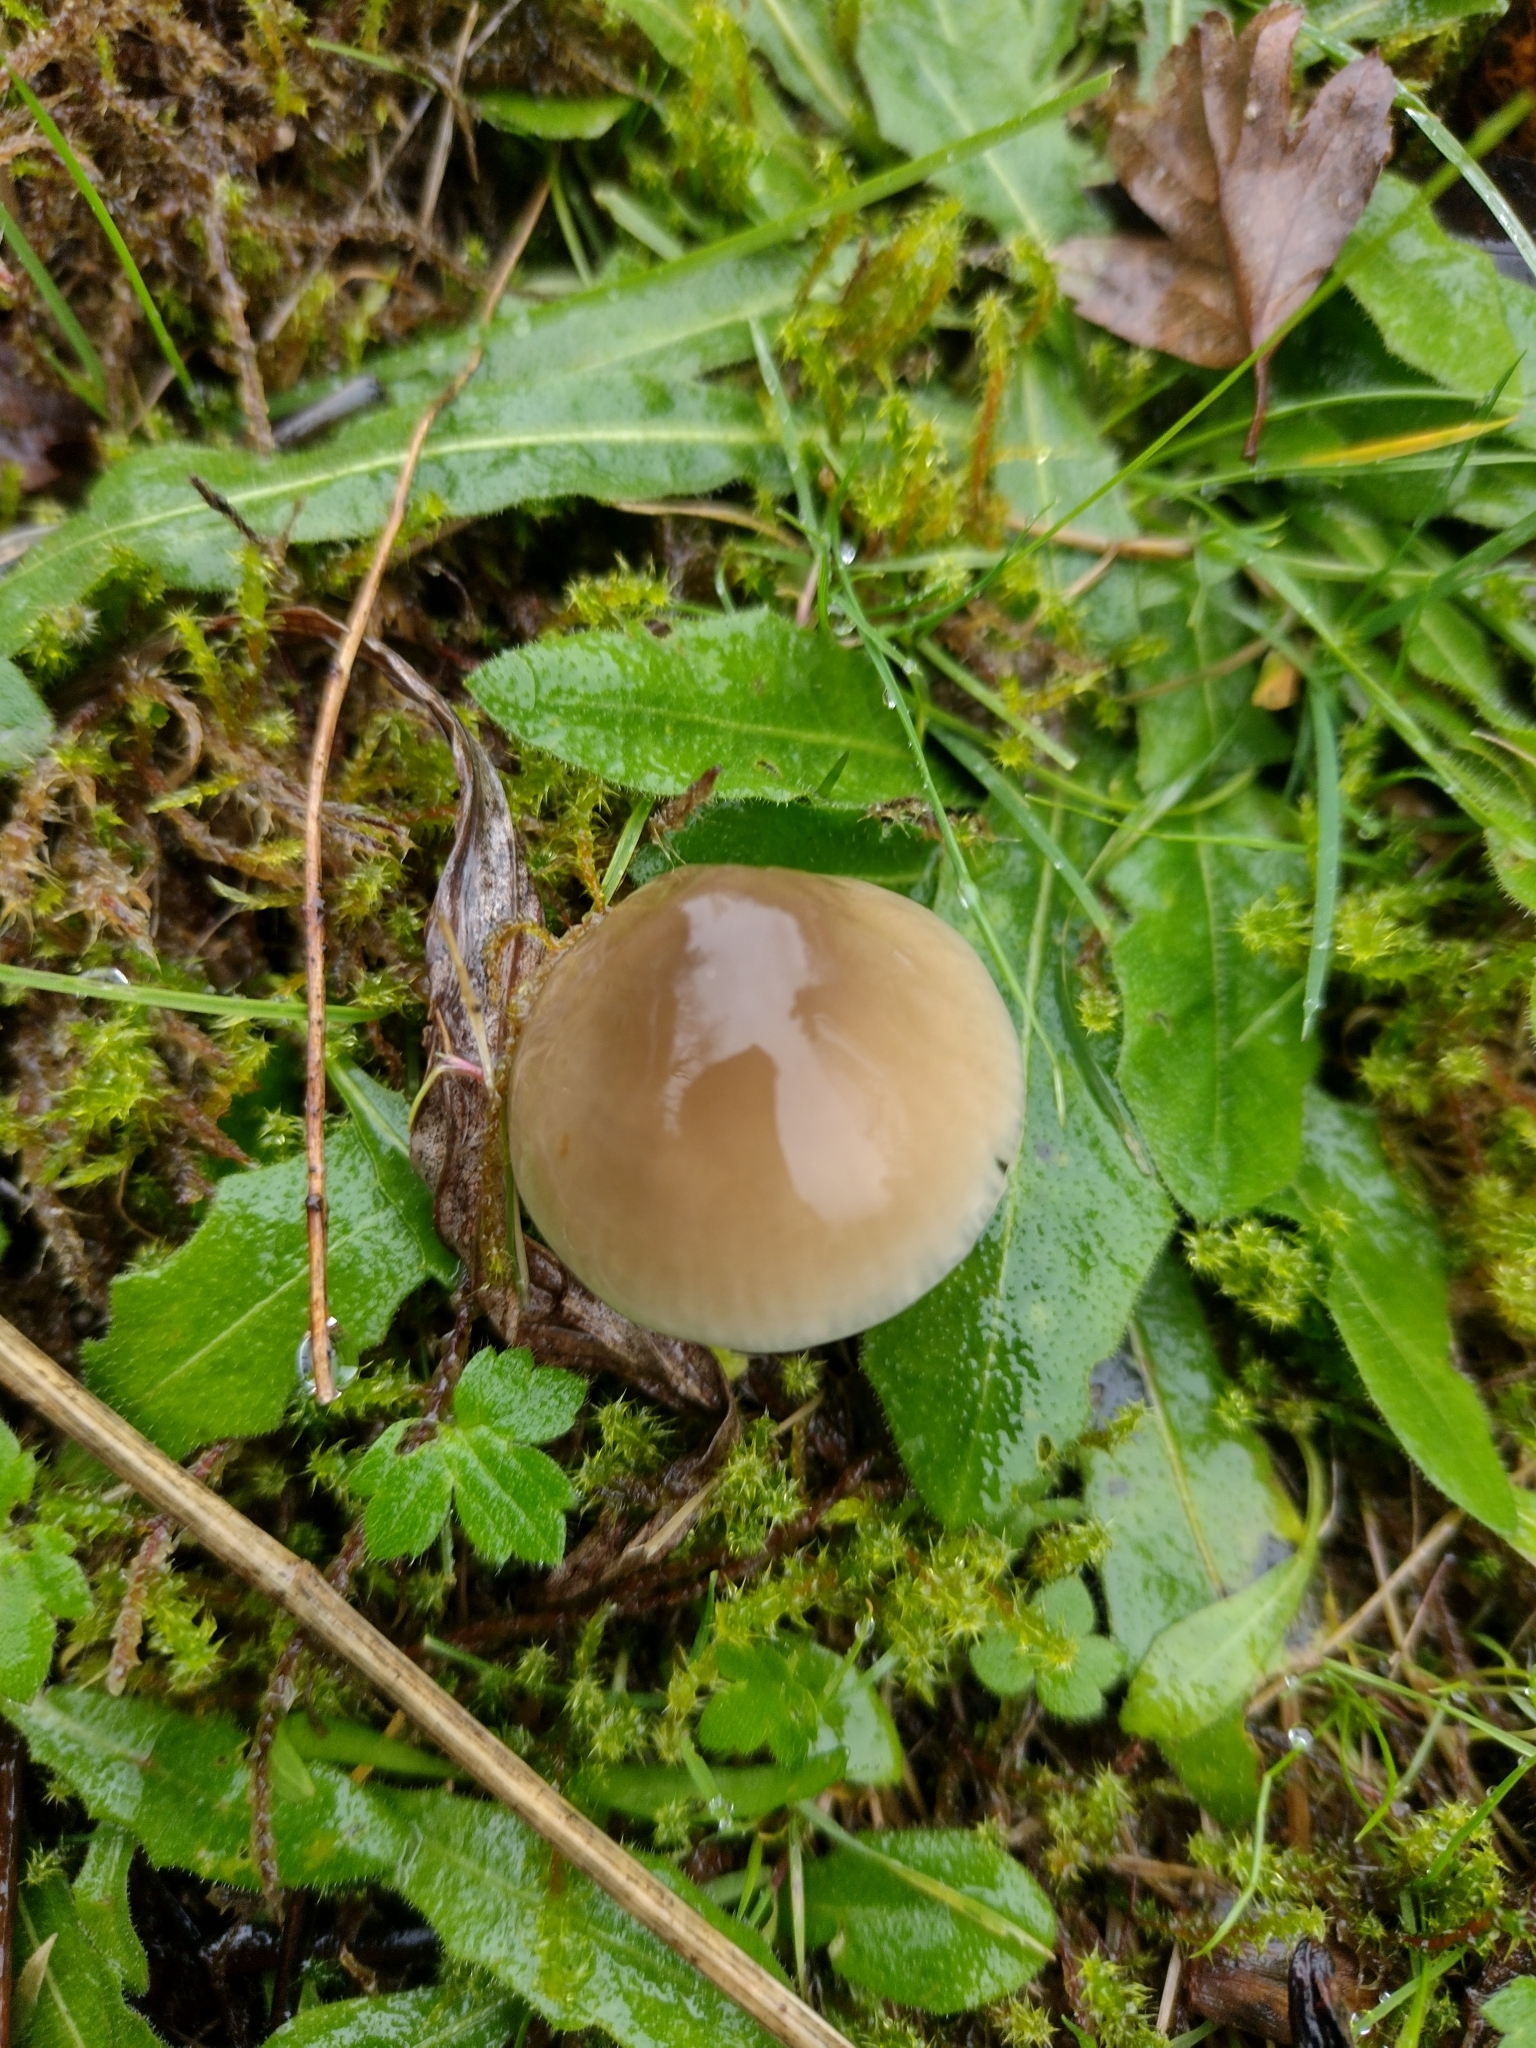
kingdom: Fungi
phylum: Basidiomycota
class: Agaricomycetes
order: Agaricales
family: Hygrophoraceae
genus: Gliophorus
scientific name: Gliophorus irrigatus
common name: Slimy waxcap
